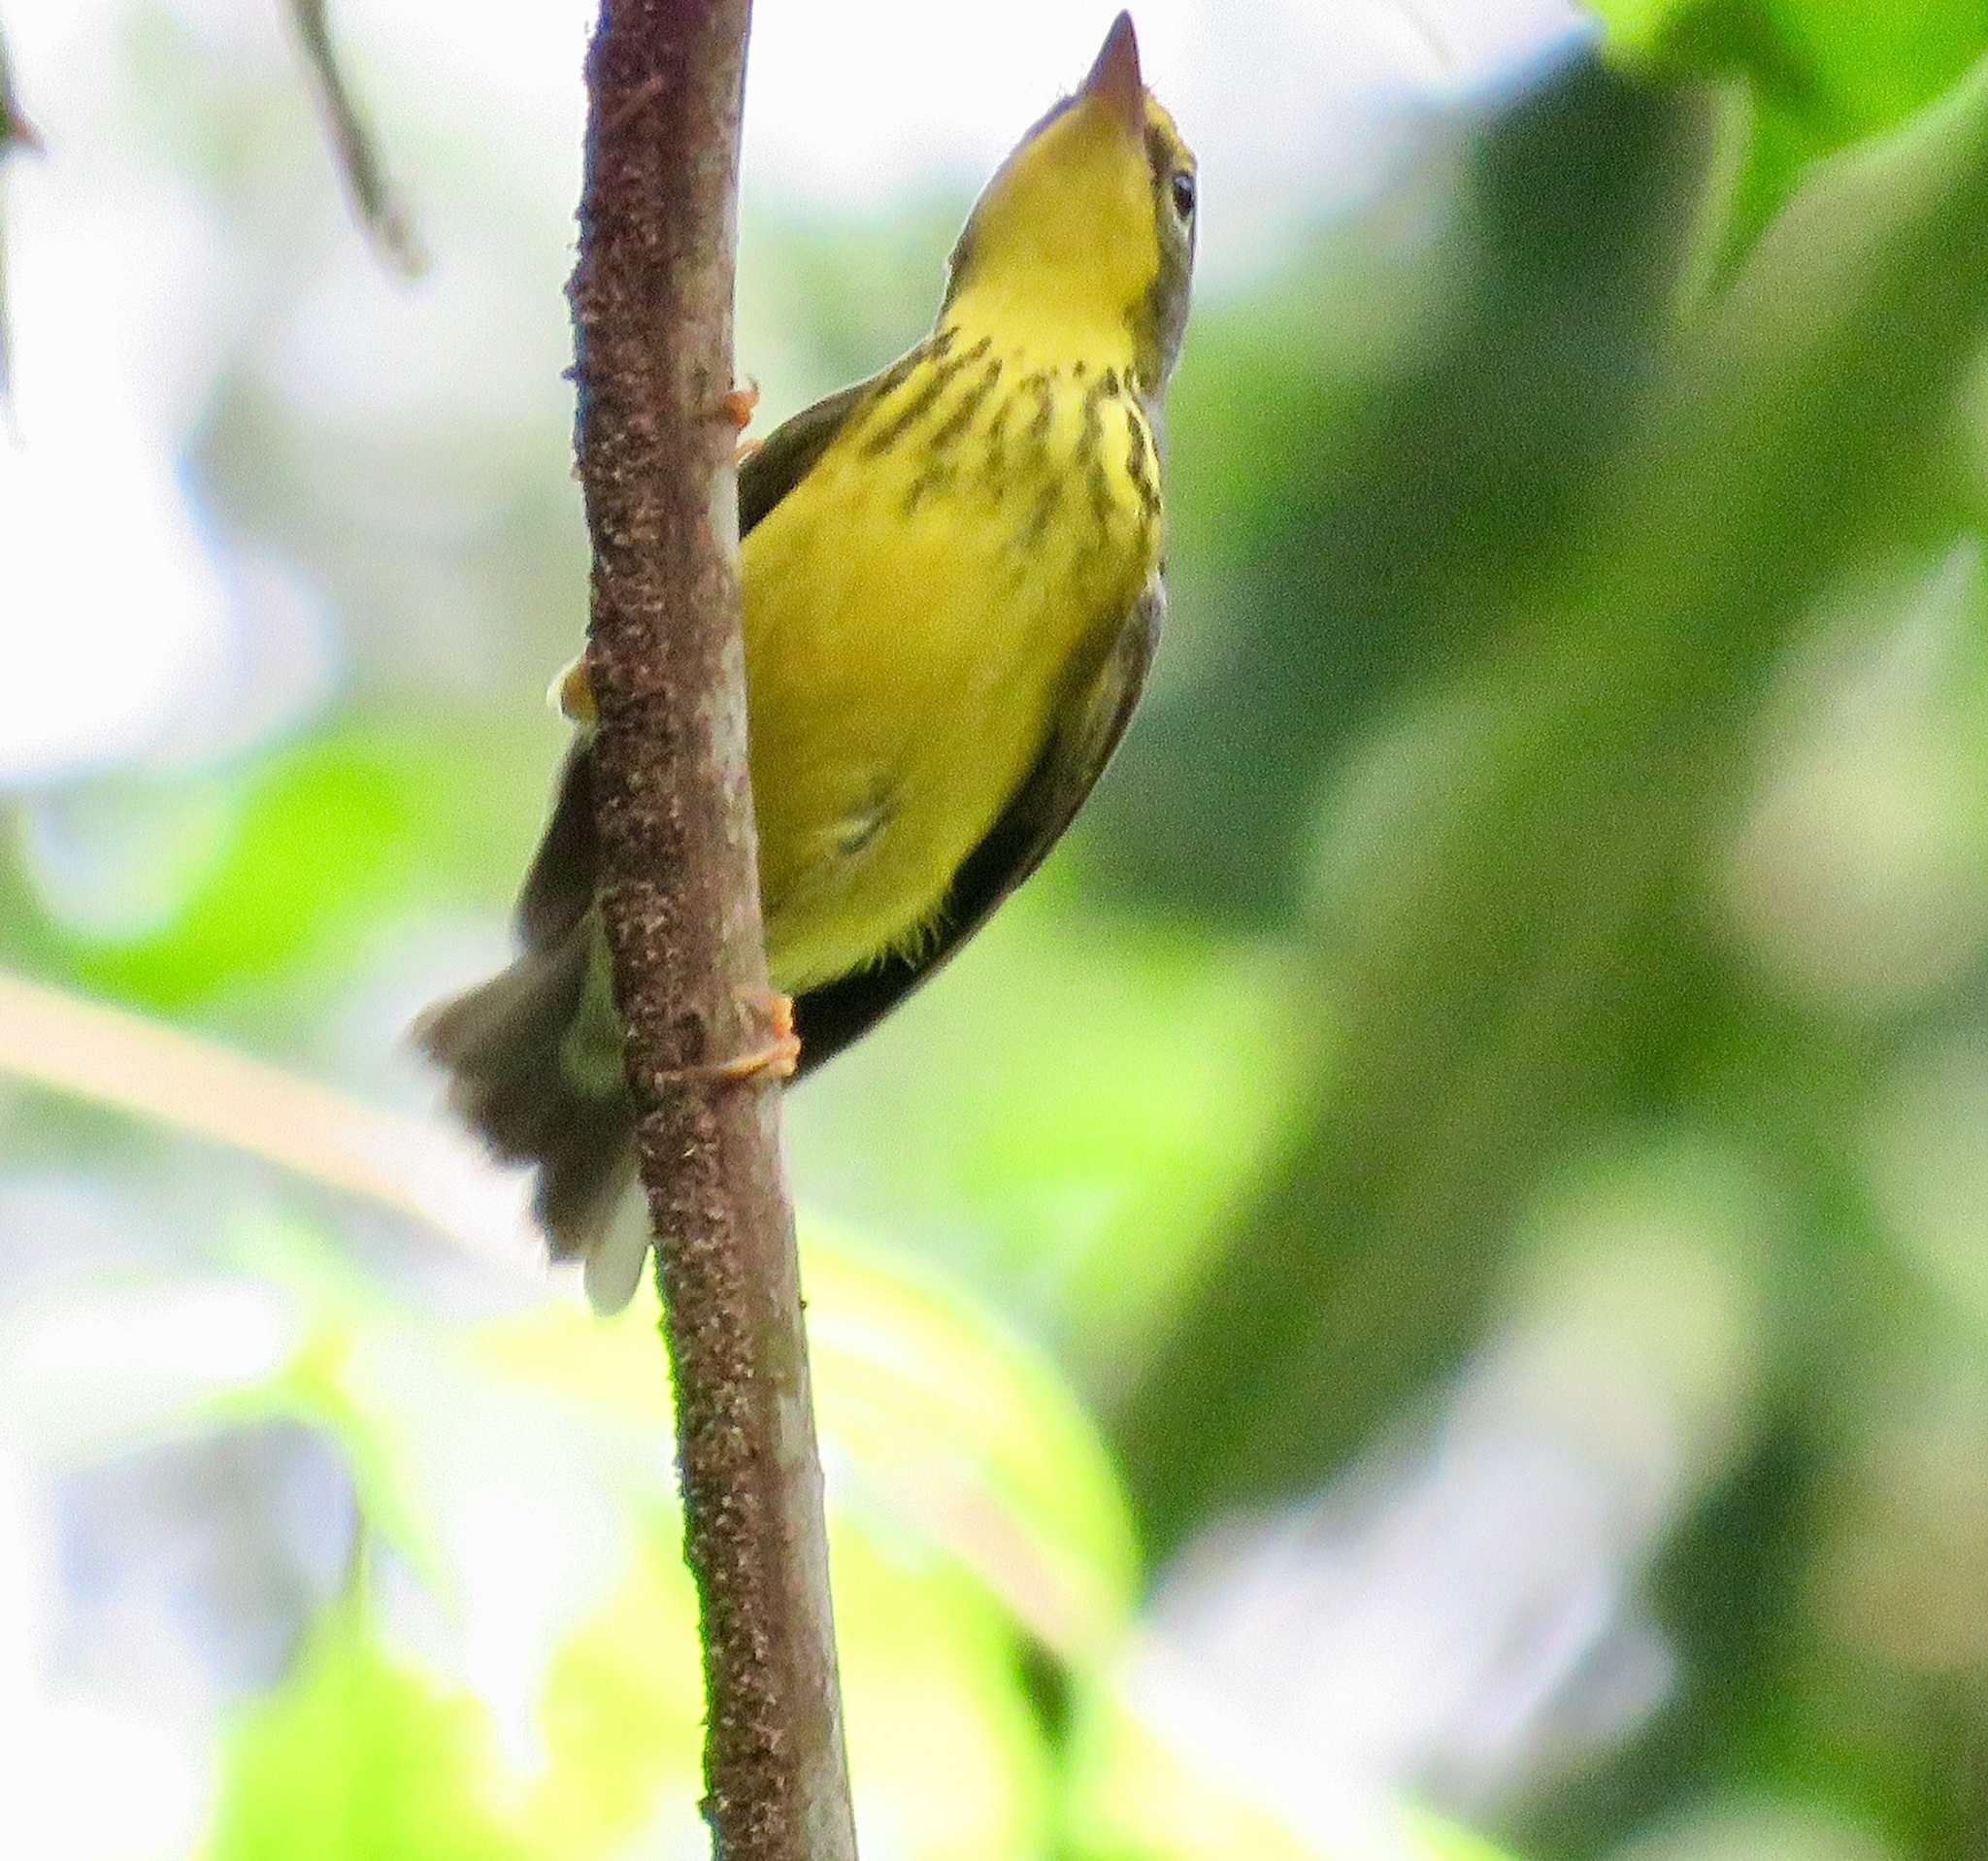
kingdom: Animalia
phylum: Chordata
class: Aves
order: Passeriformes
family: Parulidae
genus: Cardellina
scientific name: Cardellina canadensis
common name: Canada warbler
